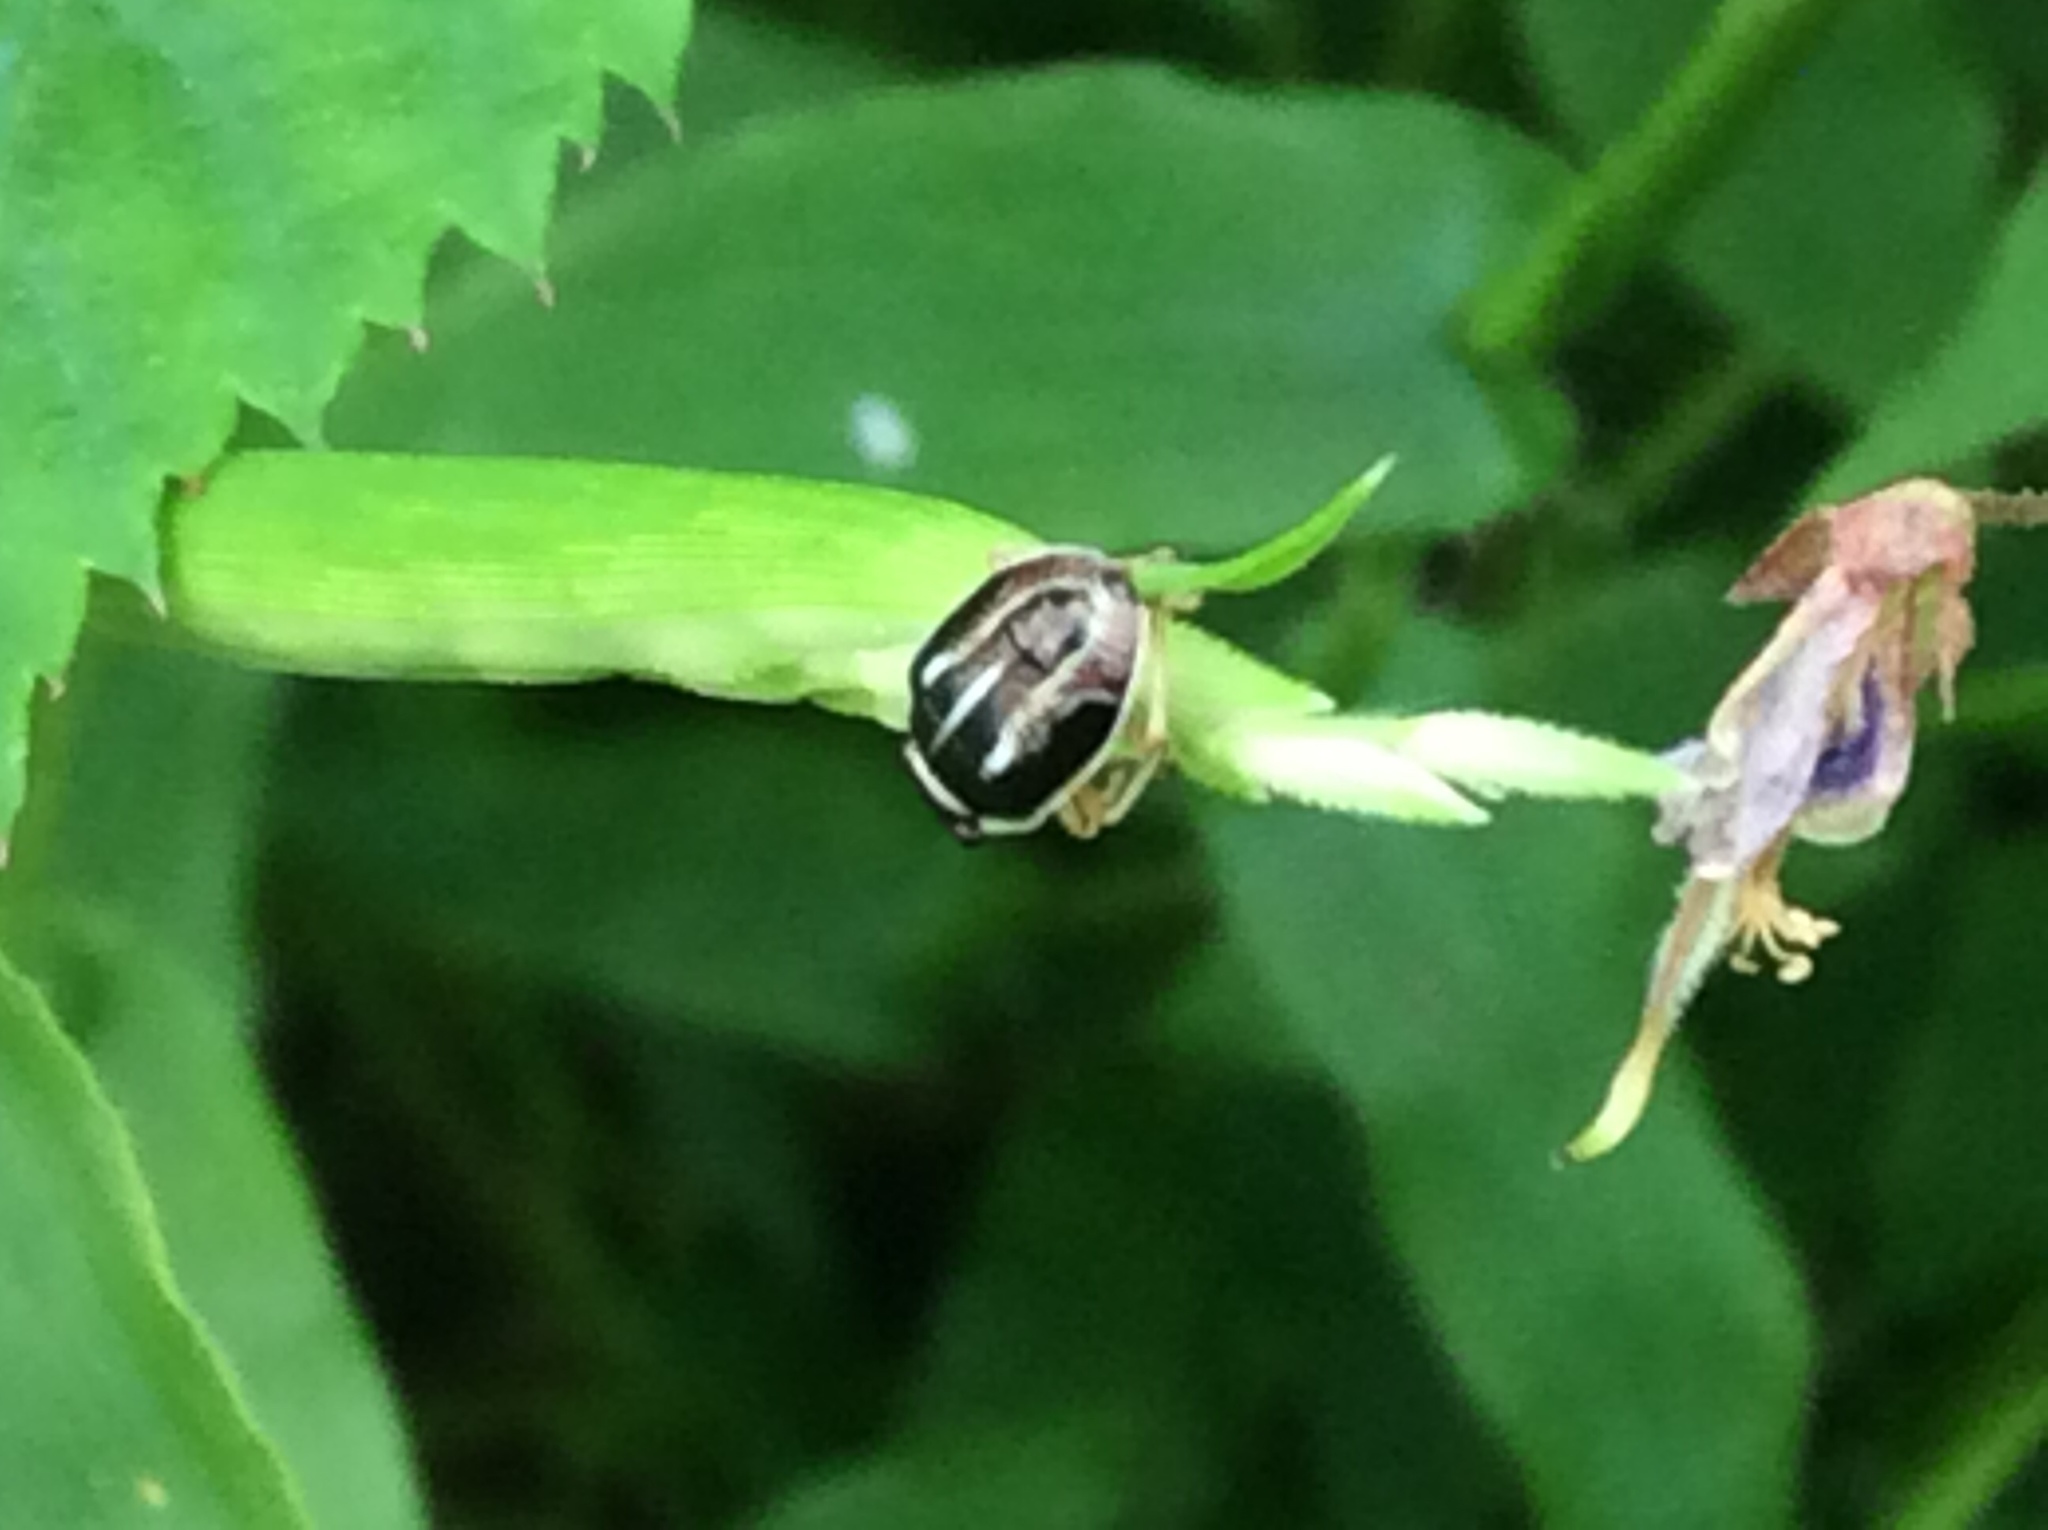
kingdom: Animalia
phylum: Arthropoda
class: Insecta
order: Hemiptera
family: Pentatomidae
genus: Mormidea
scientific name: Mormidea lugens
